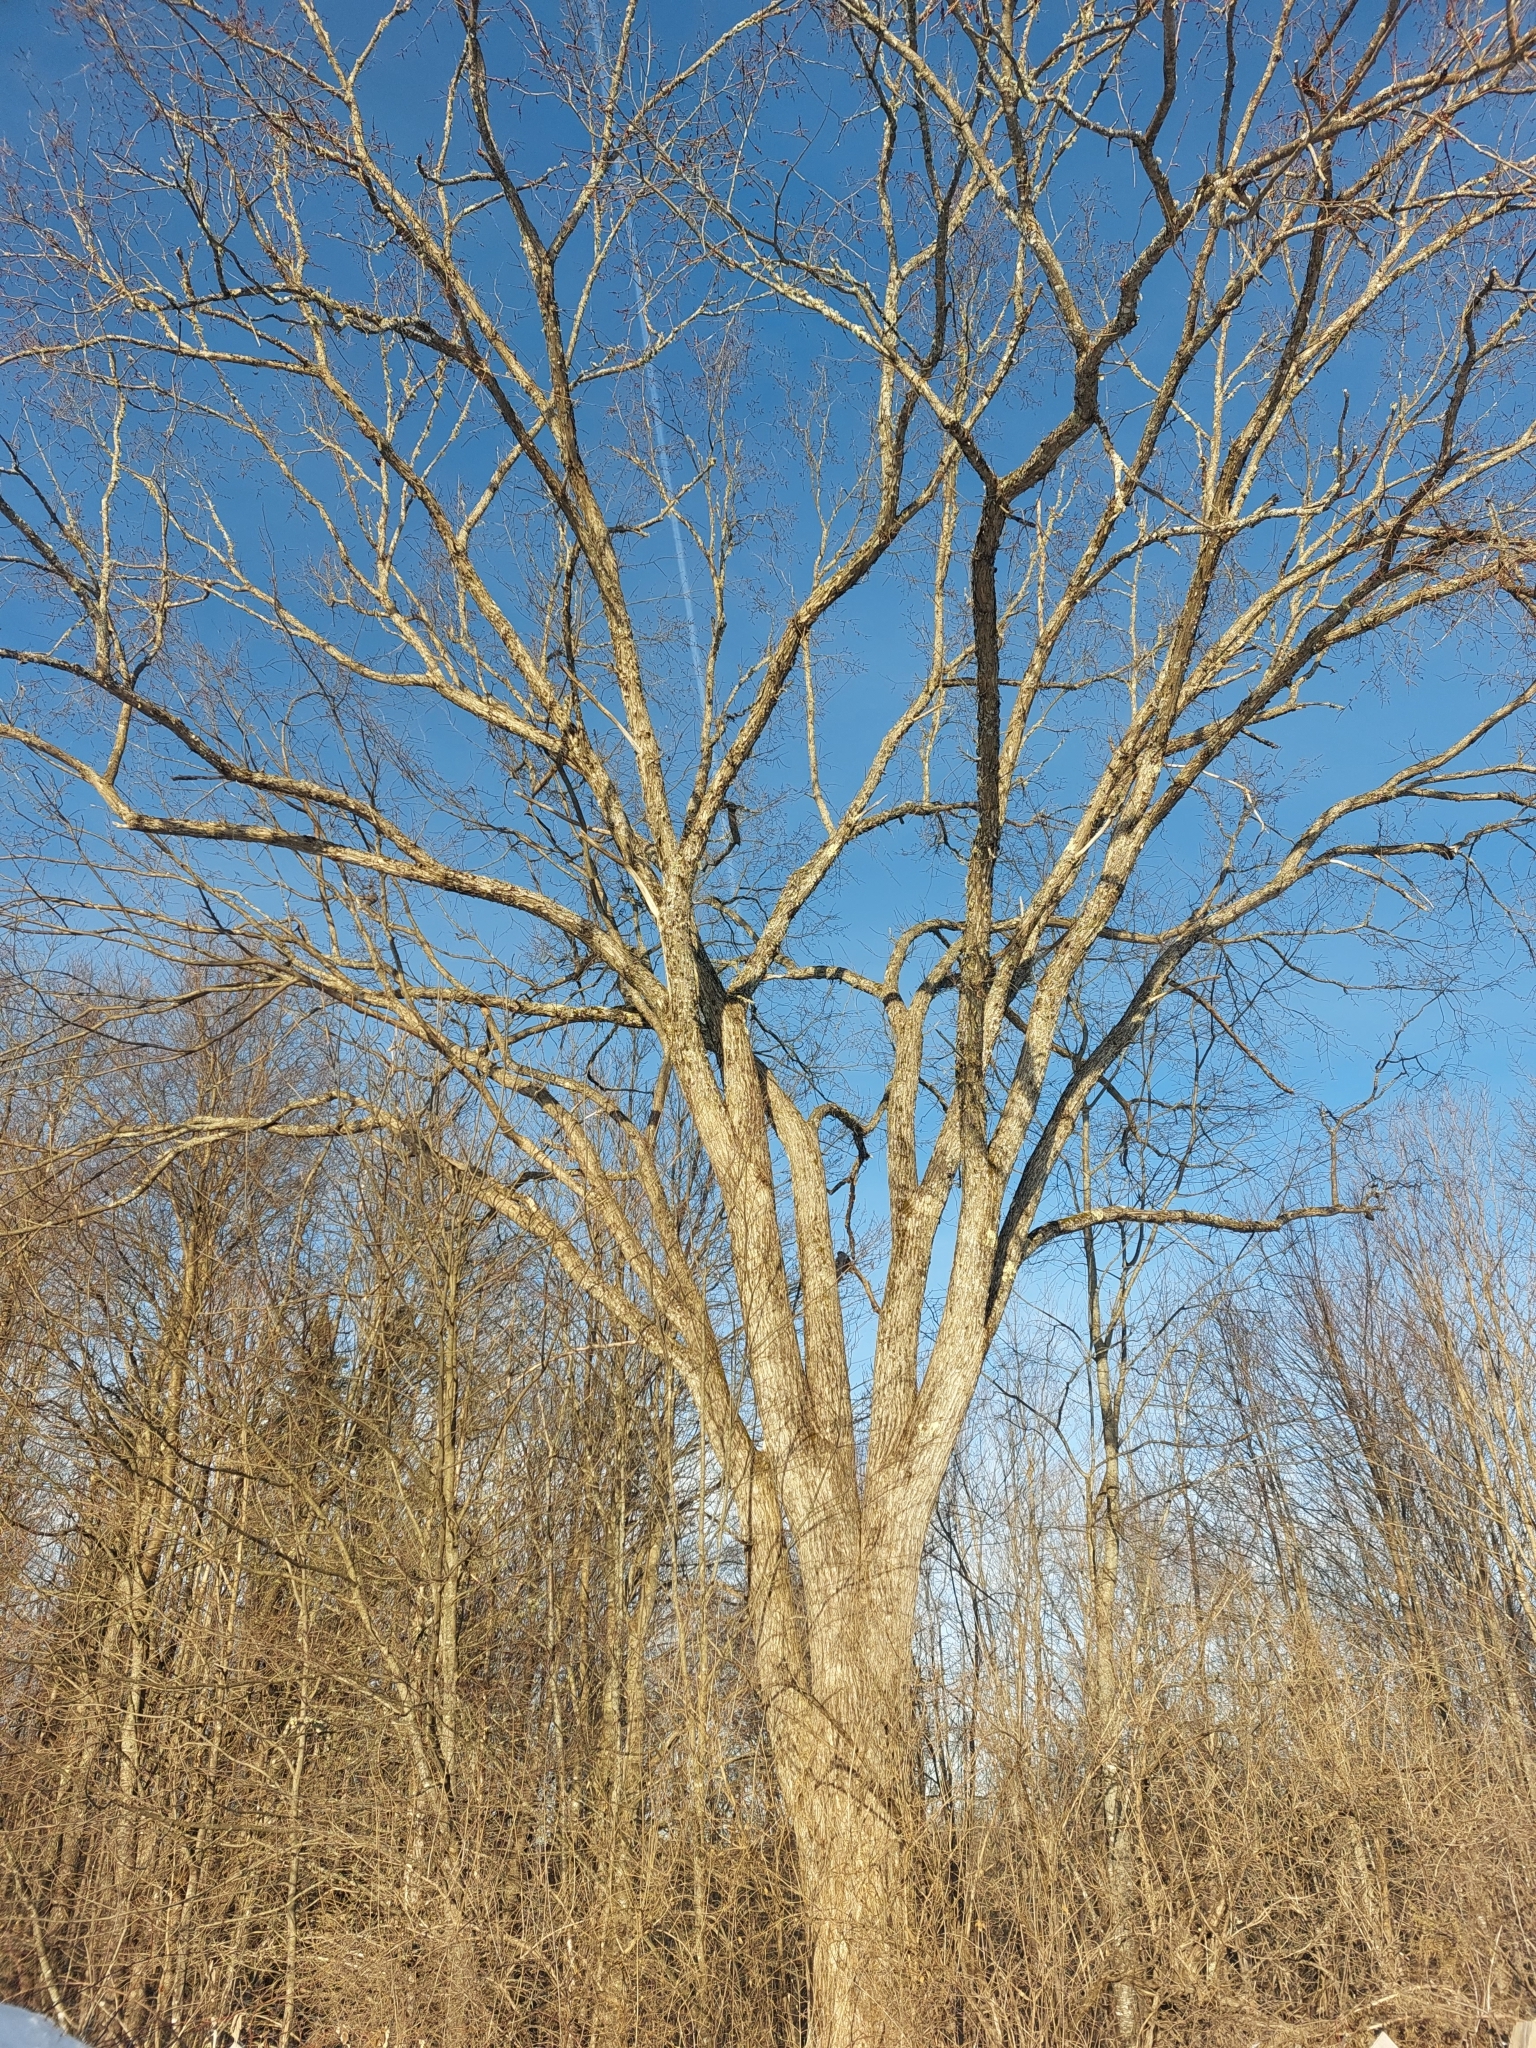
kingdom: Plantae
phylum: Tracheophyta
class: Magnoliopsida
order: Rosales
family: Ulmaceae
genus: Ulmus
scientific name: Ulmus americana
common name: American elm
